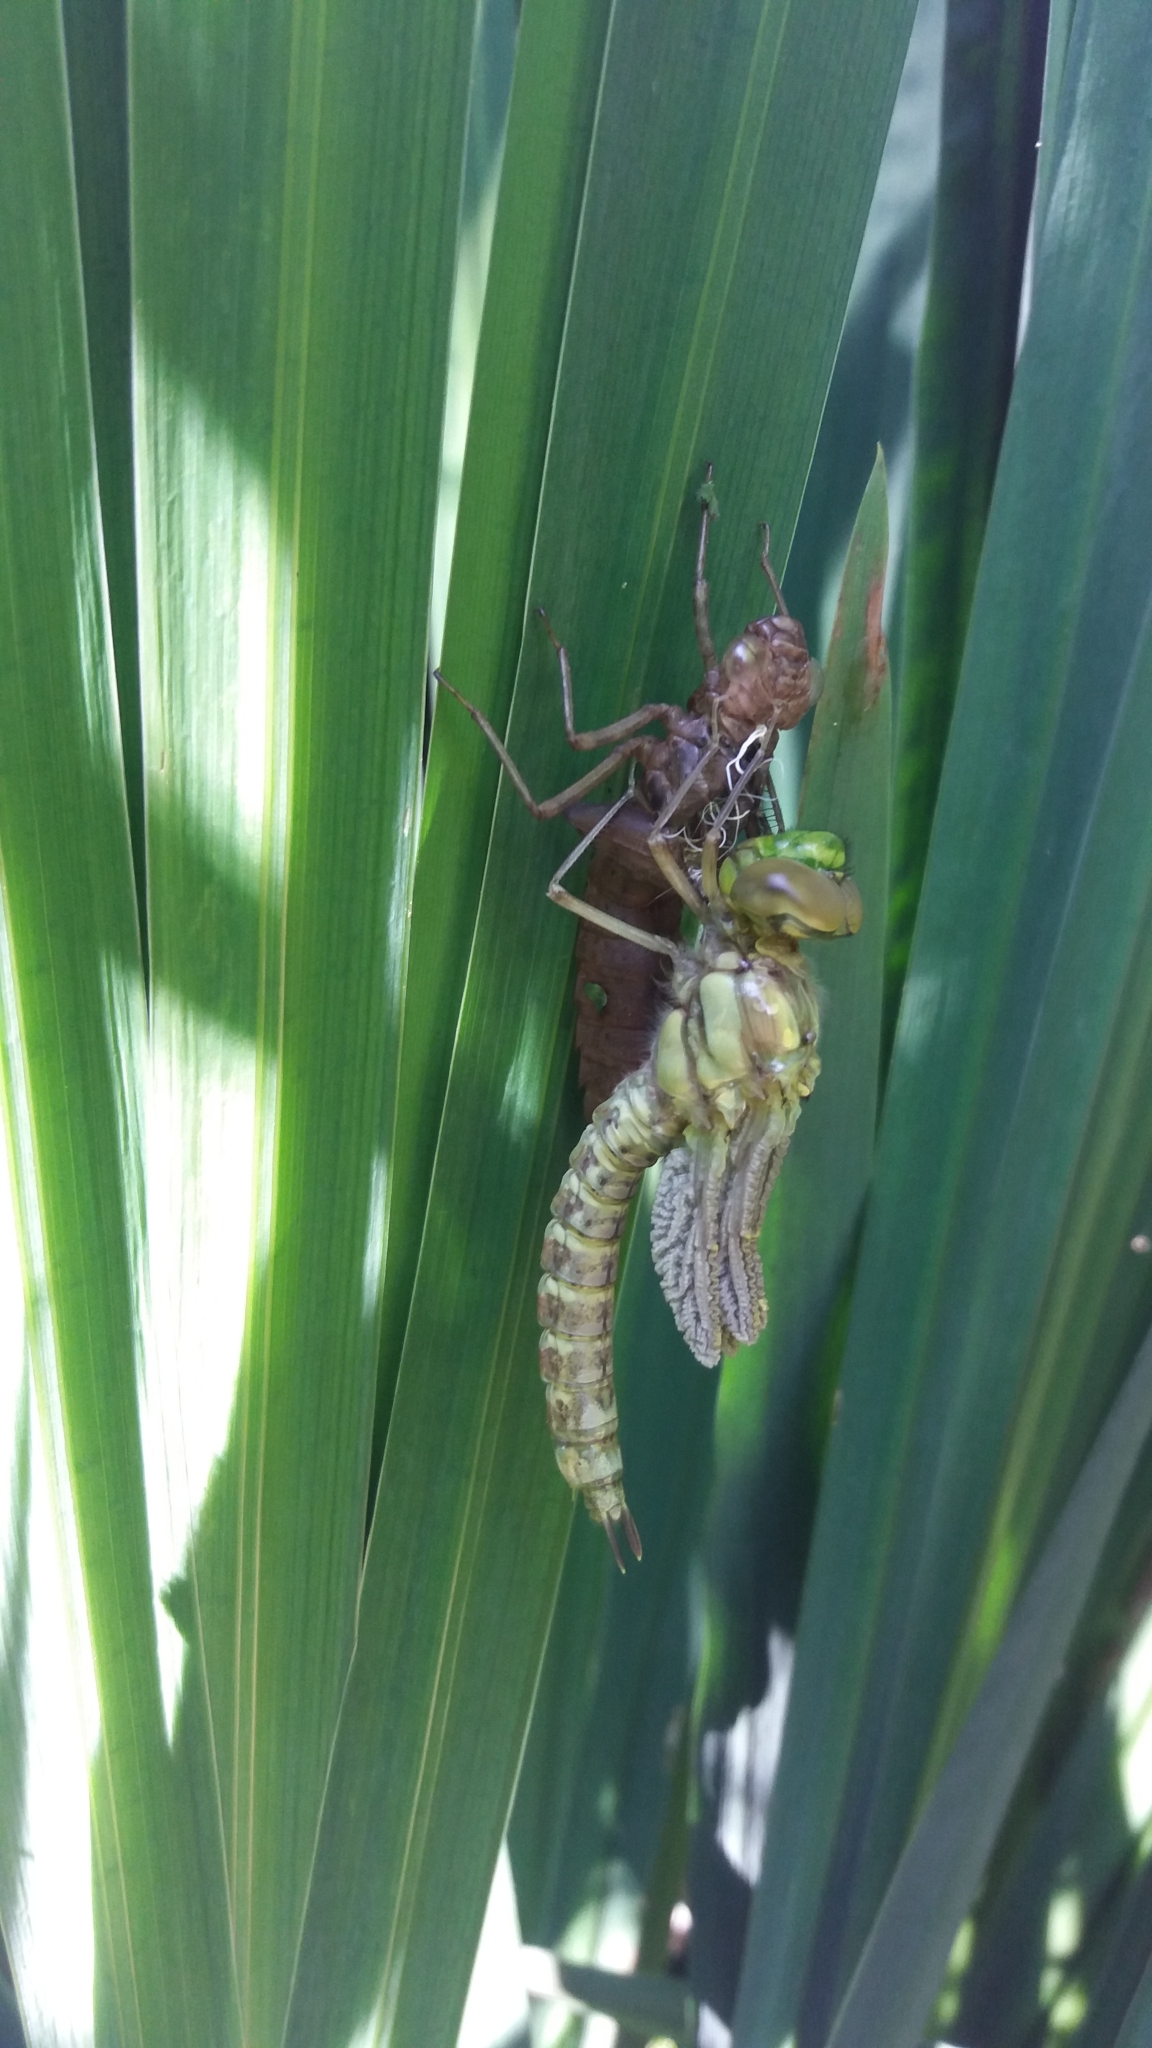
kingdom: Animalia
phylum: Arthropoda
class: Insecta
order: Odonata
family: Aeshnidae
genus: Aeshna
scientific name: Aeshna cyanea
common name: Southern hawker
